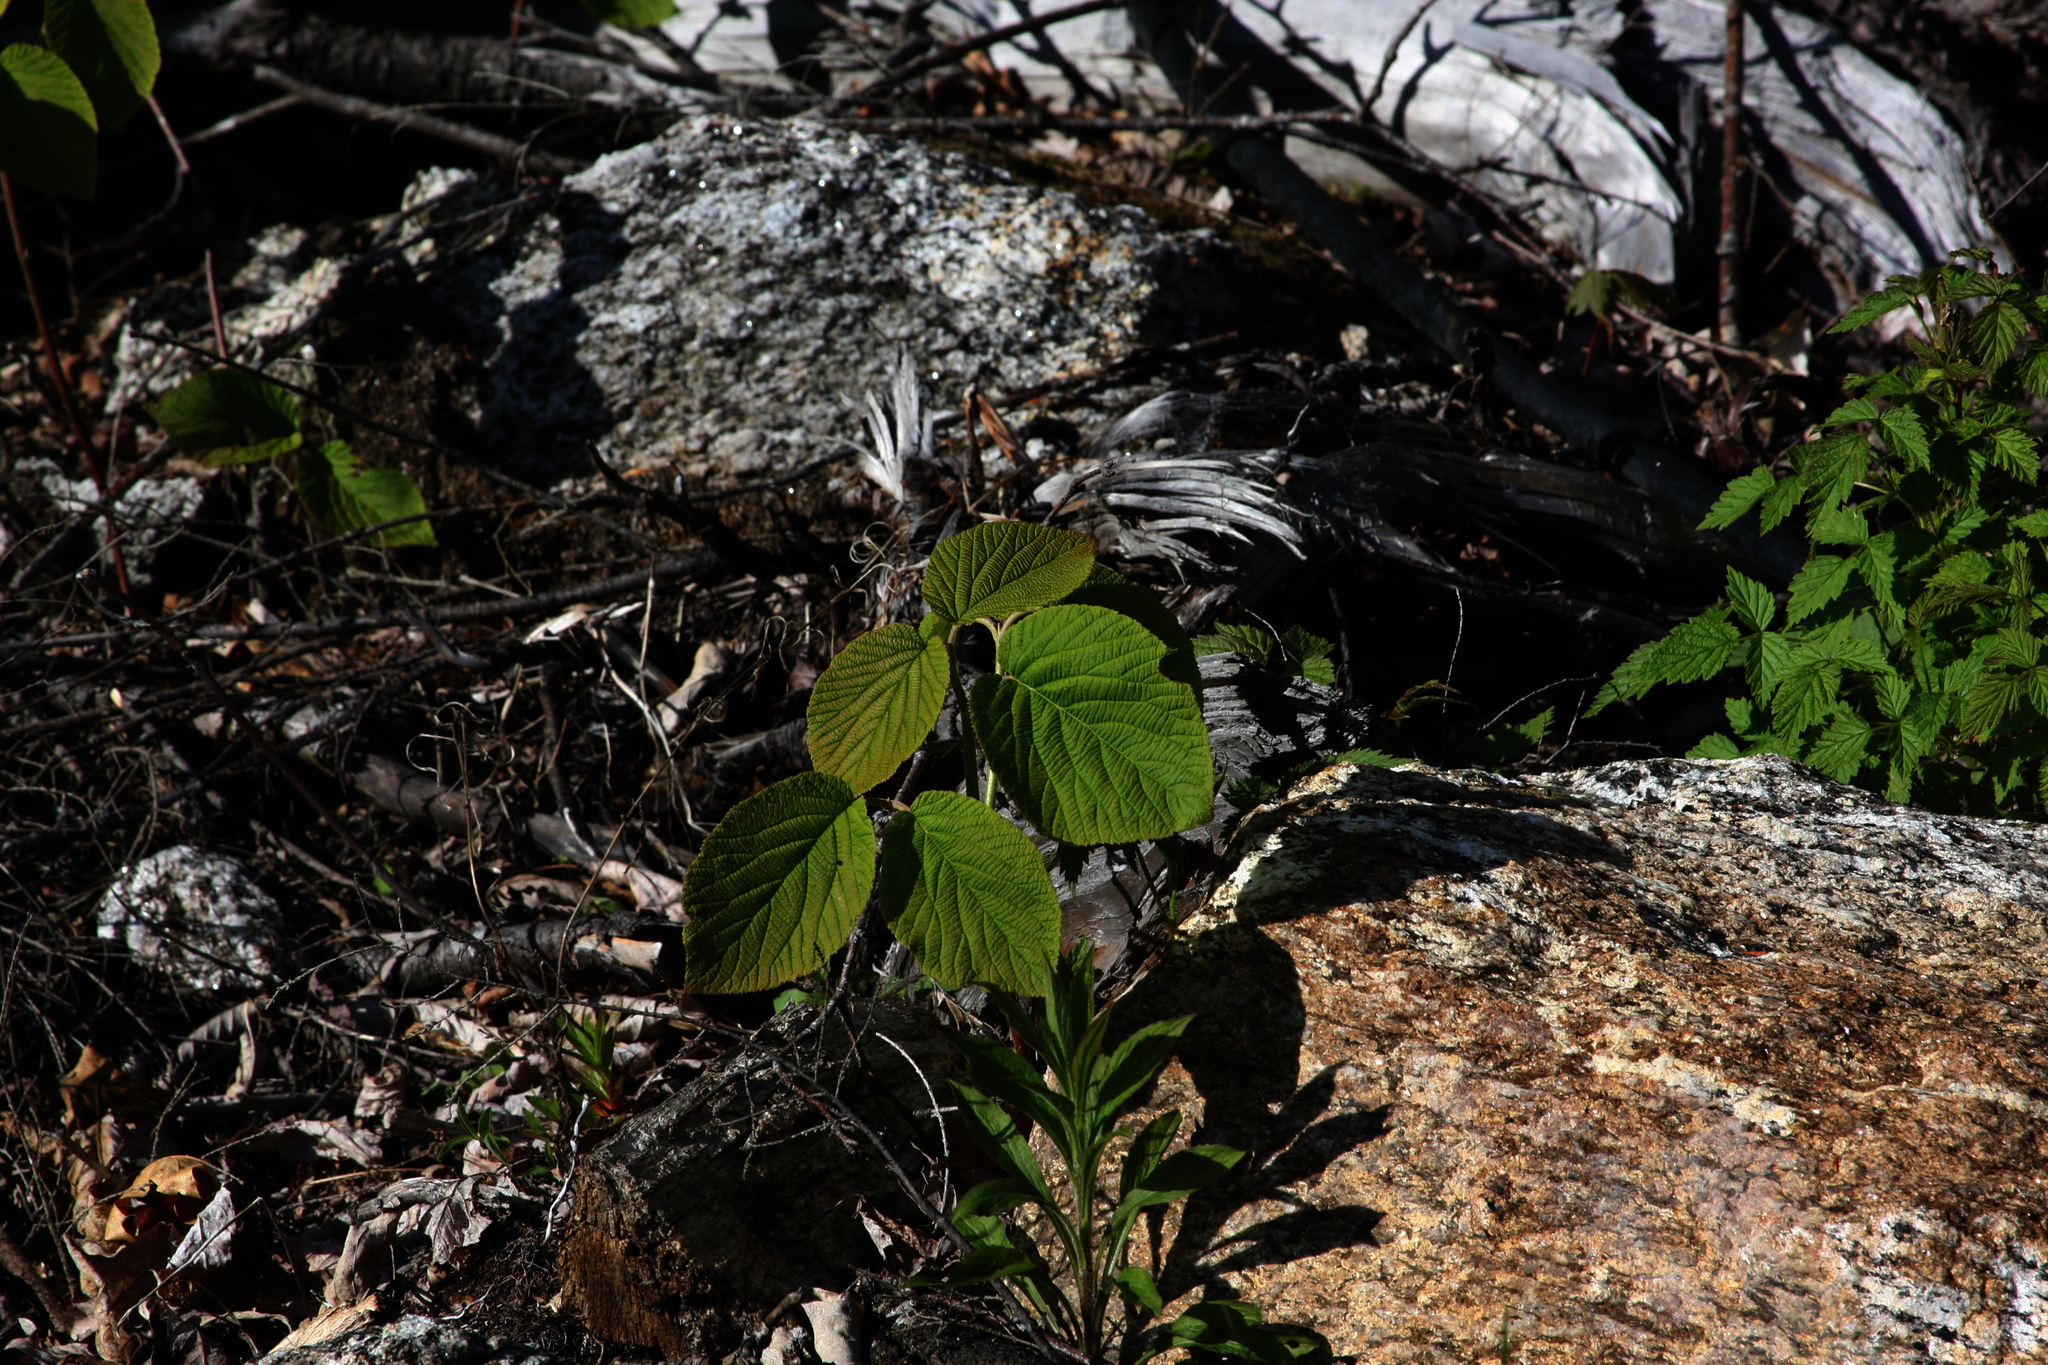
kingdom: Plantae
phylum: Tracheophyta
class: Magnoliopsida
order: Dipsacales
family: Viburnaceae
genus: Viburnum
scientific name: Viburnum lantanoides
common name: Hobblebush
